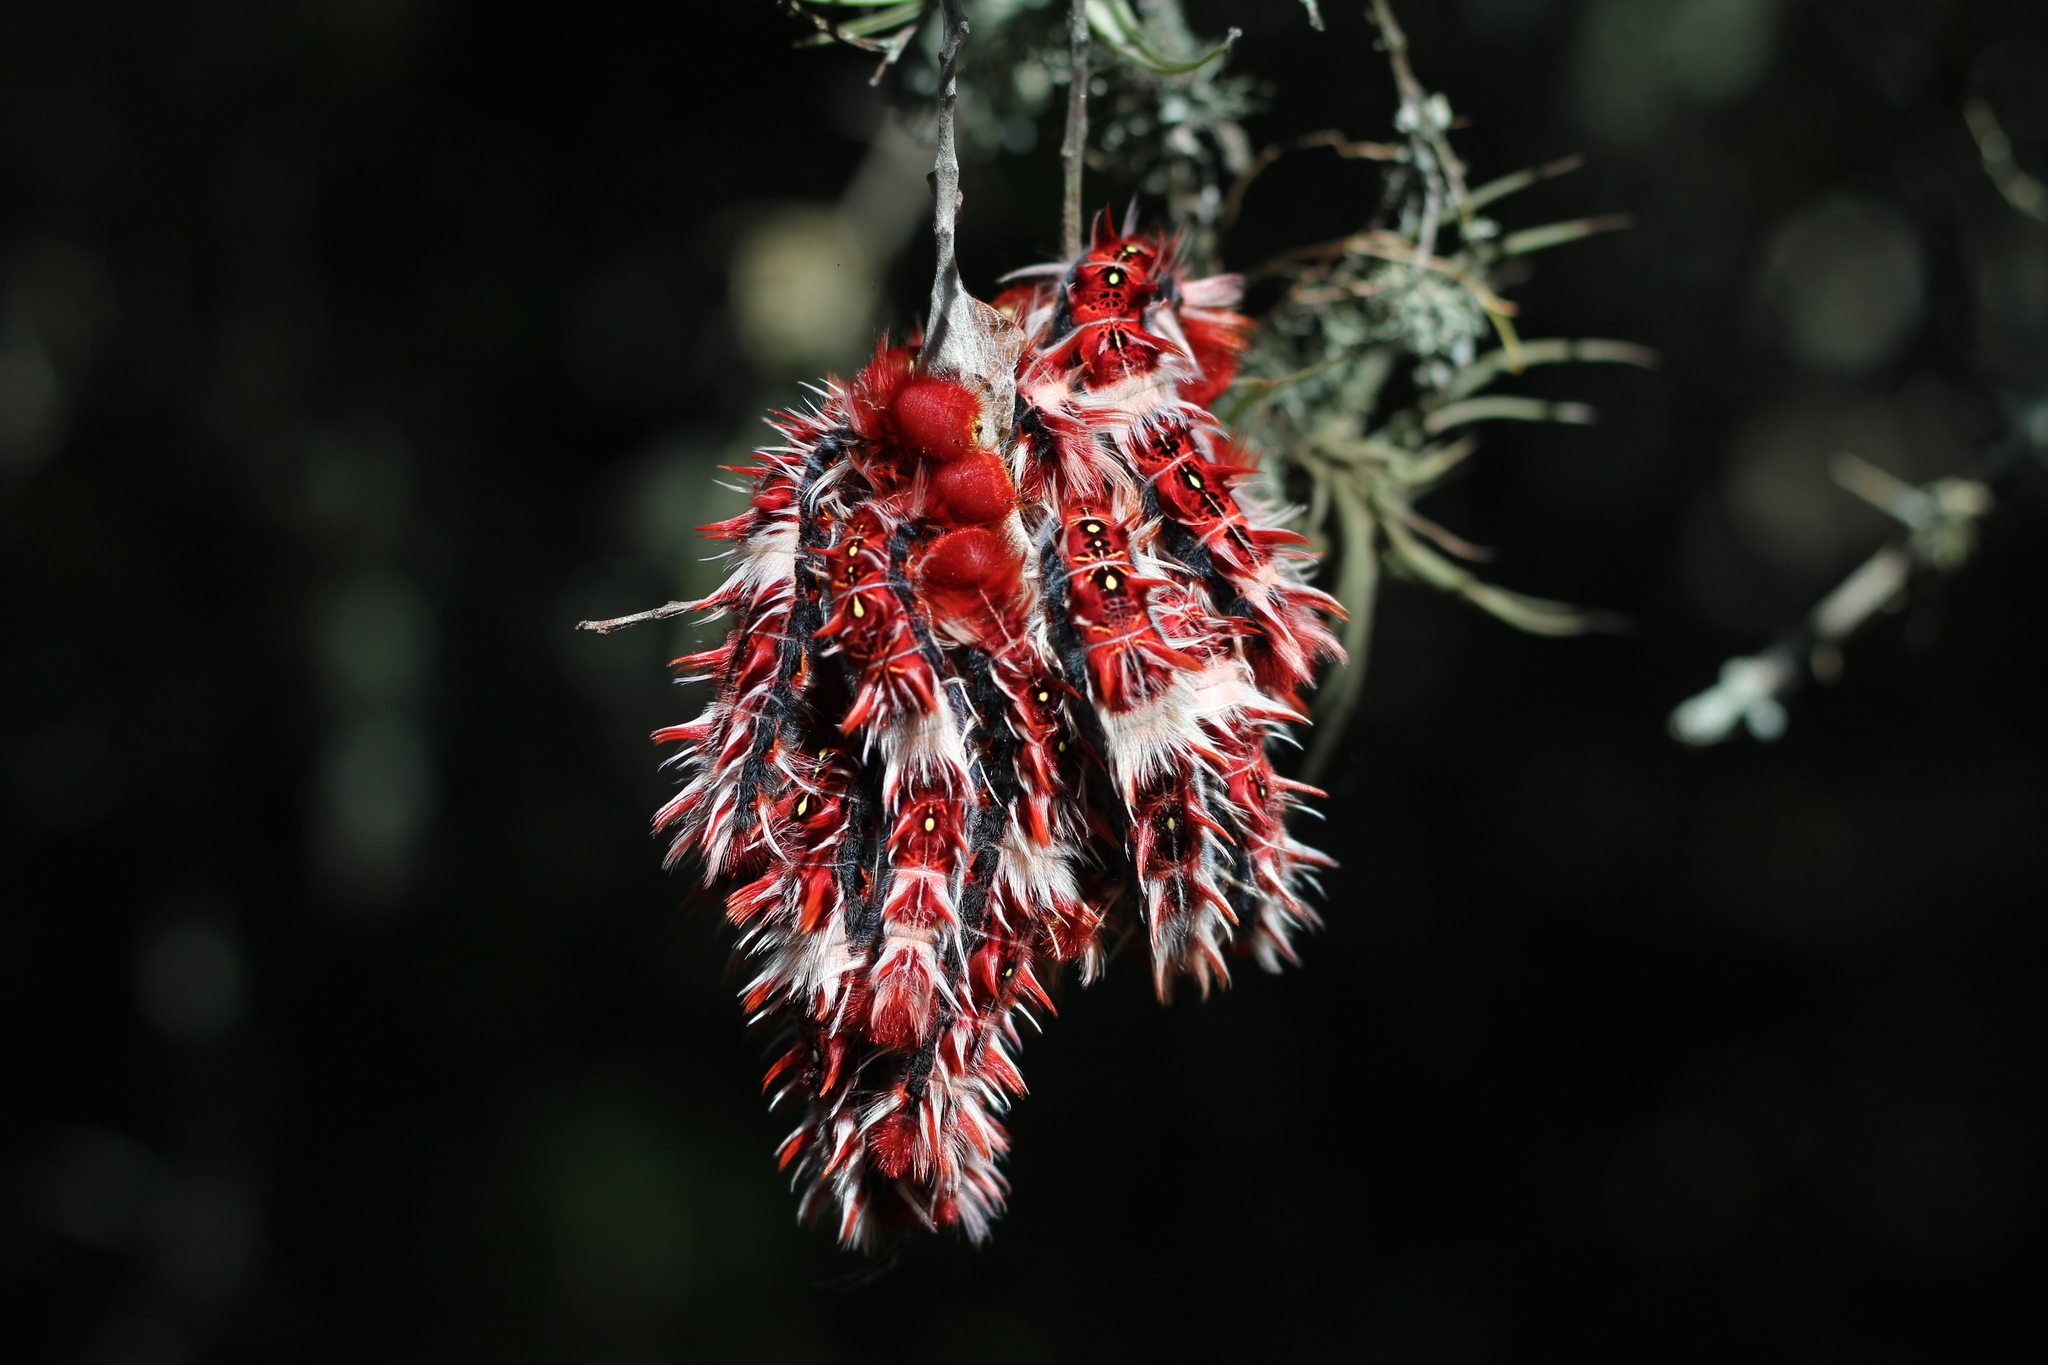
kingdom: Animalia
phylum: Arthropoda
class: Insecta
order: Lepidoptera
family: Nymphalidae
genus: Morpho
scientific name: Morpho epistrophus
